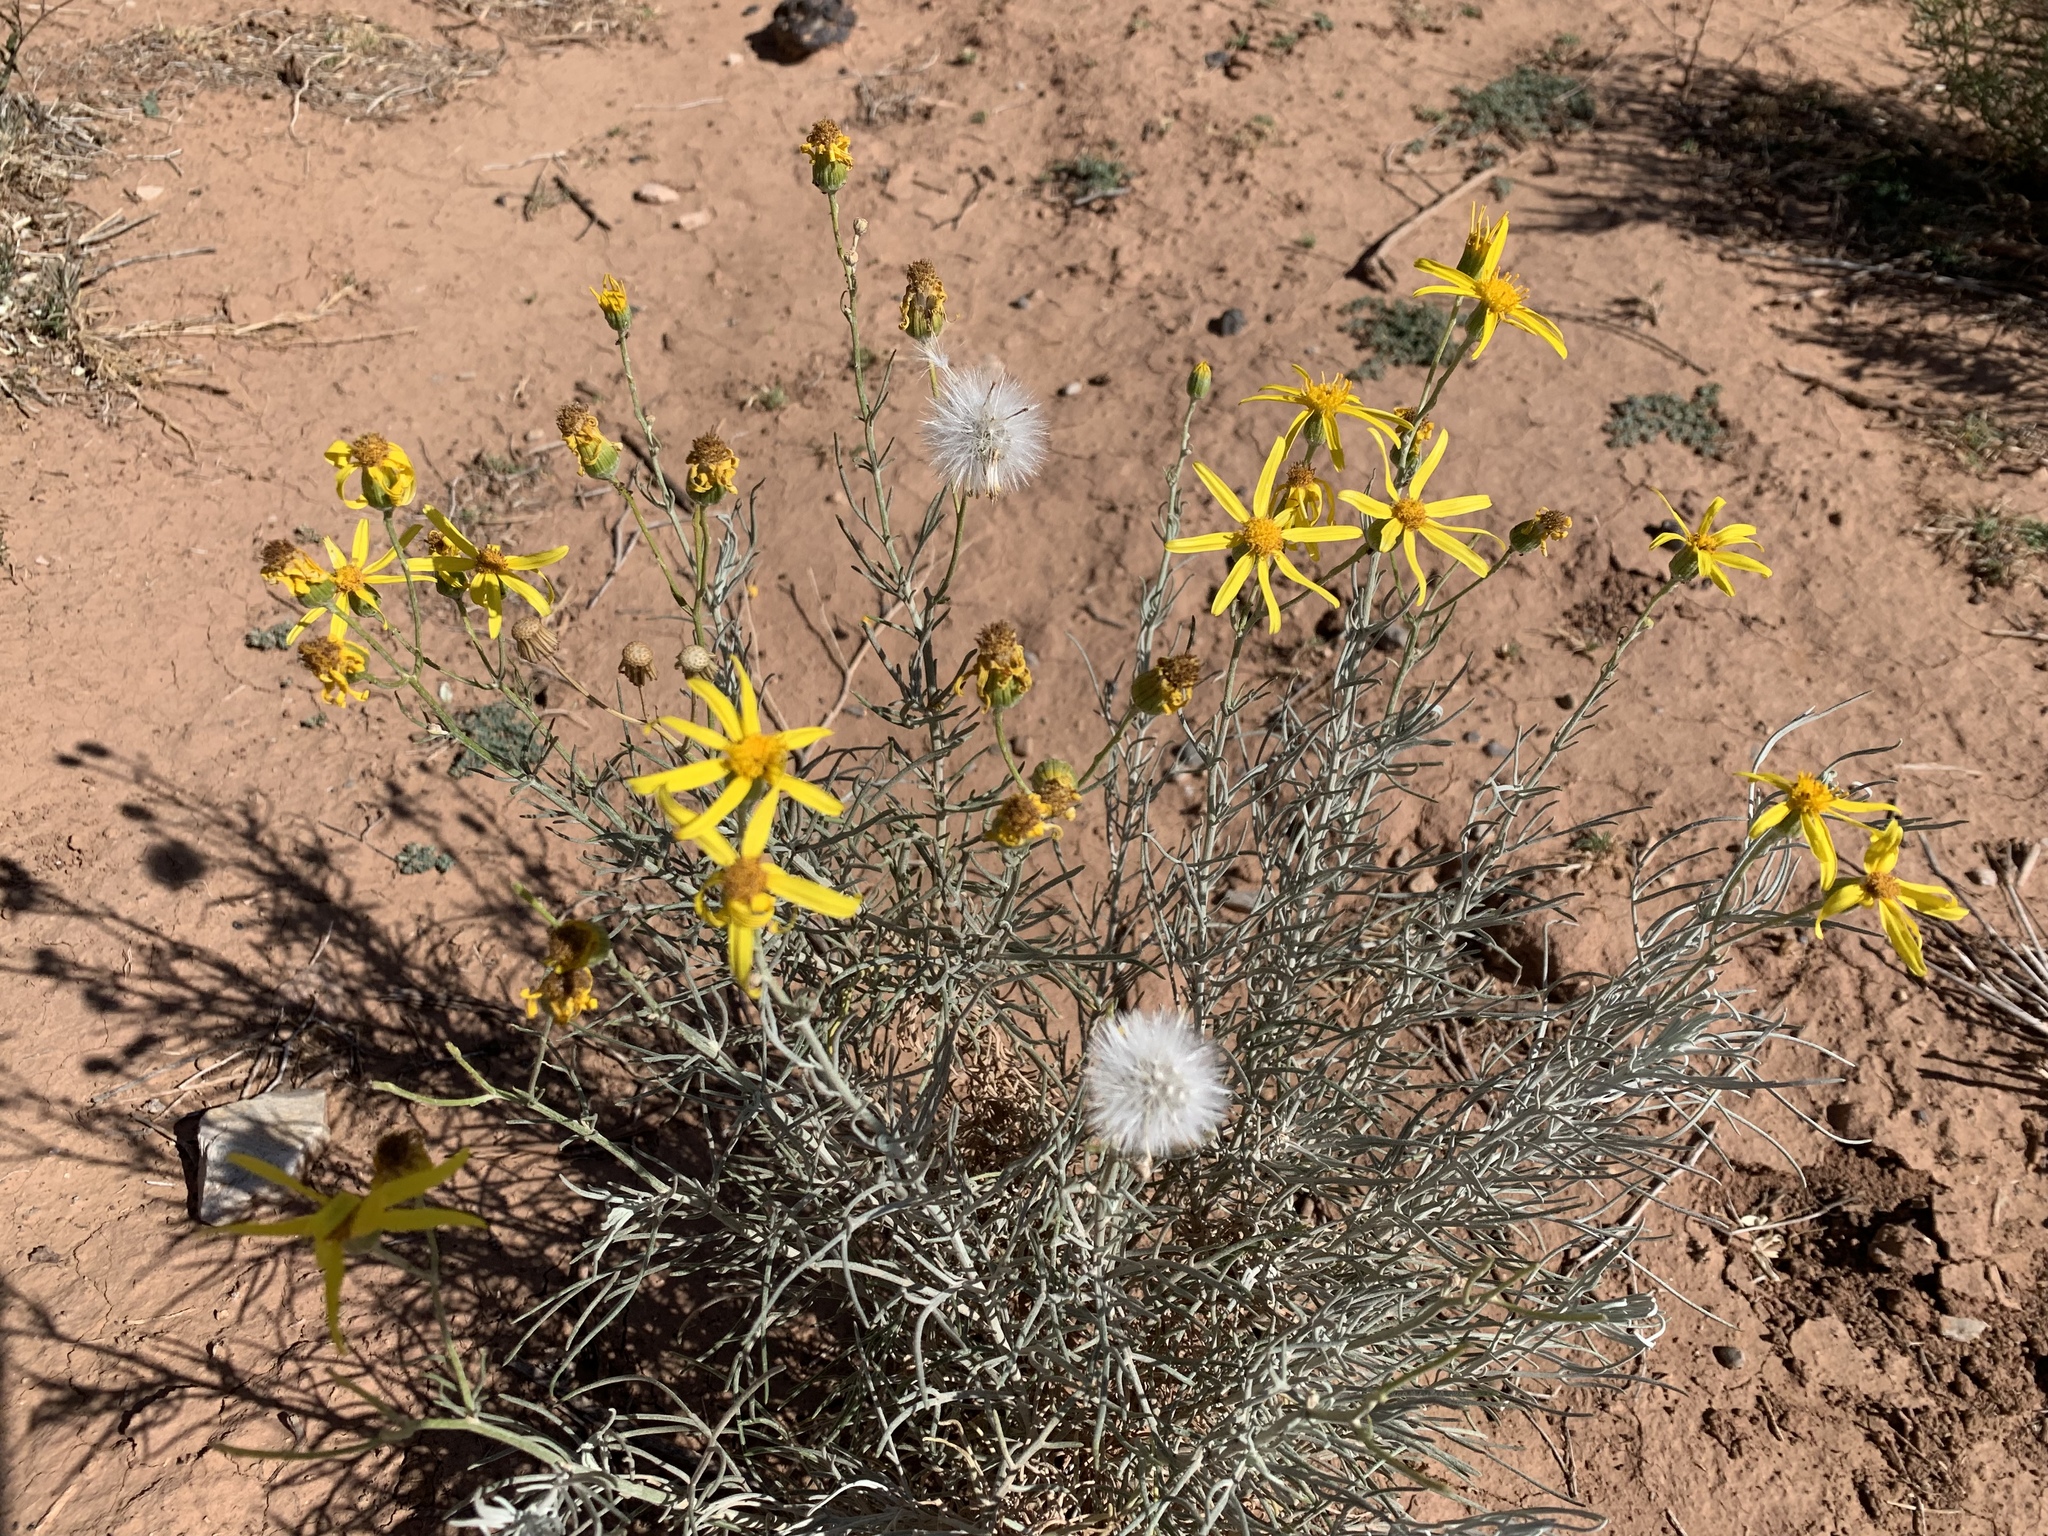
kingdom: Plantae
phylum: Tracheophyta
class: Magnoliopsida
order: Asterales
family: Asteraceae
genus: Senecio
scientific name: Senecio flaccidus
